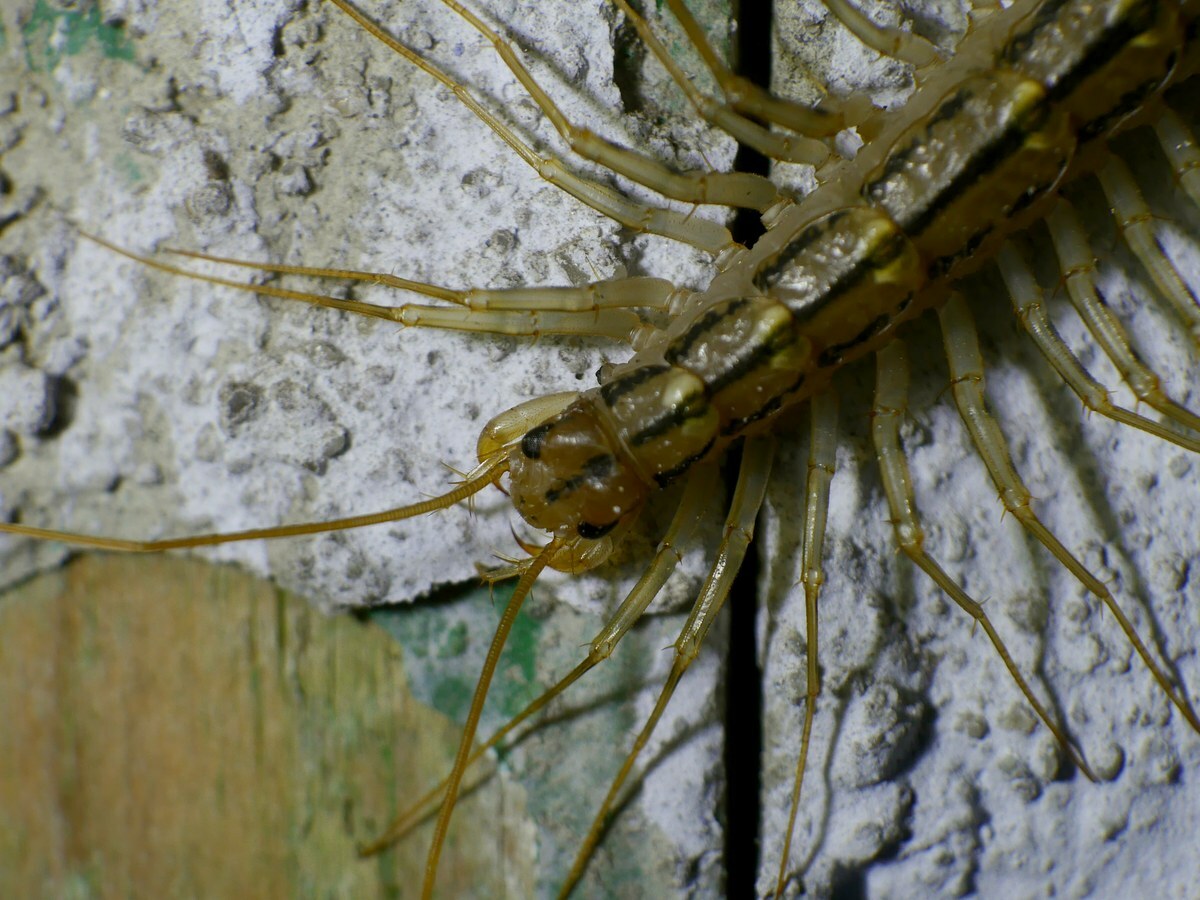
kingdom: Animalia
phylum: Arthropoda
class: Chilopoda
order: Scutigeromorpha
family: Scutigeridae
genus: Scutigera
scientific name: Scutigera coleoptrata
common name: House centipede
